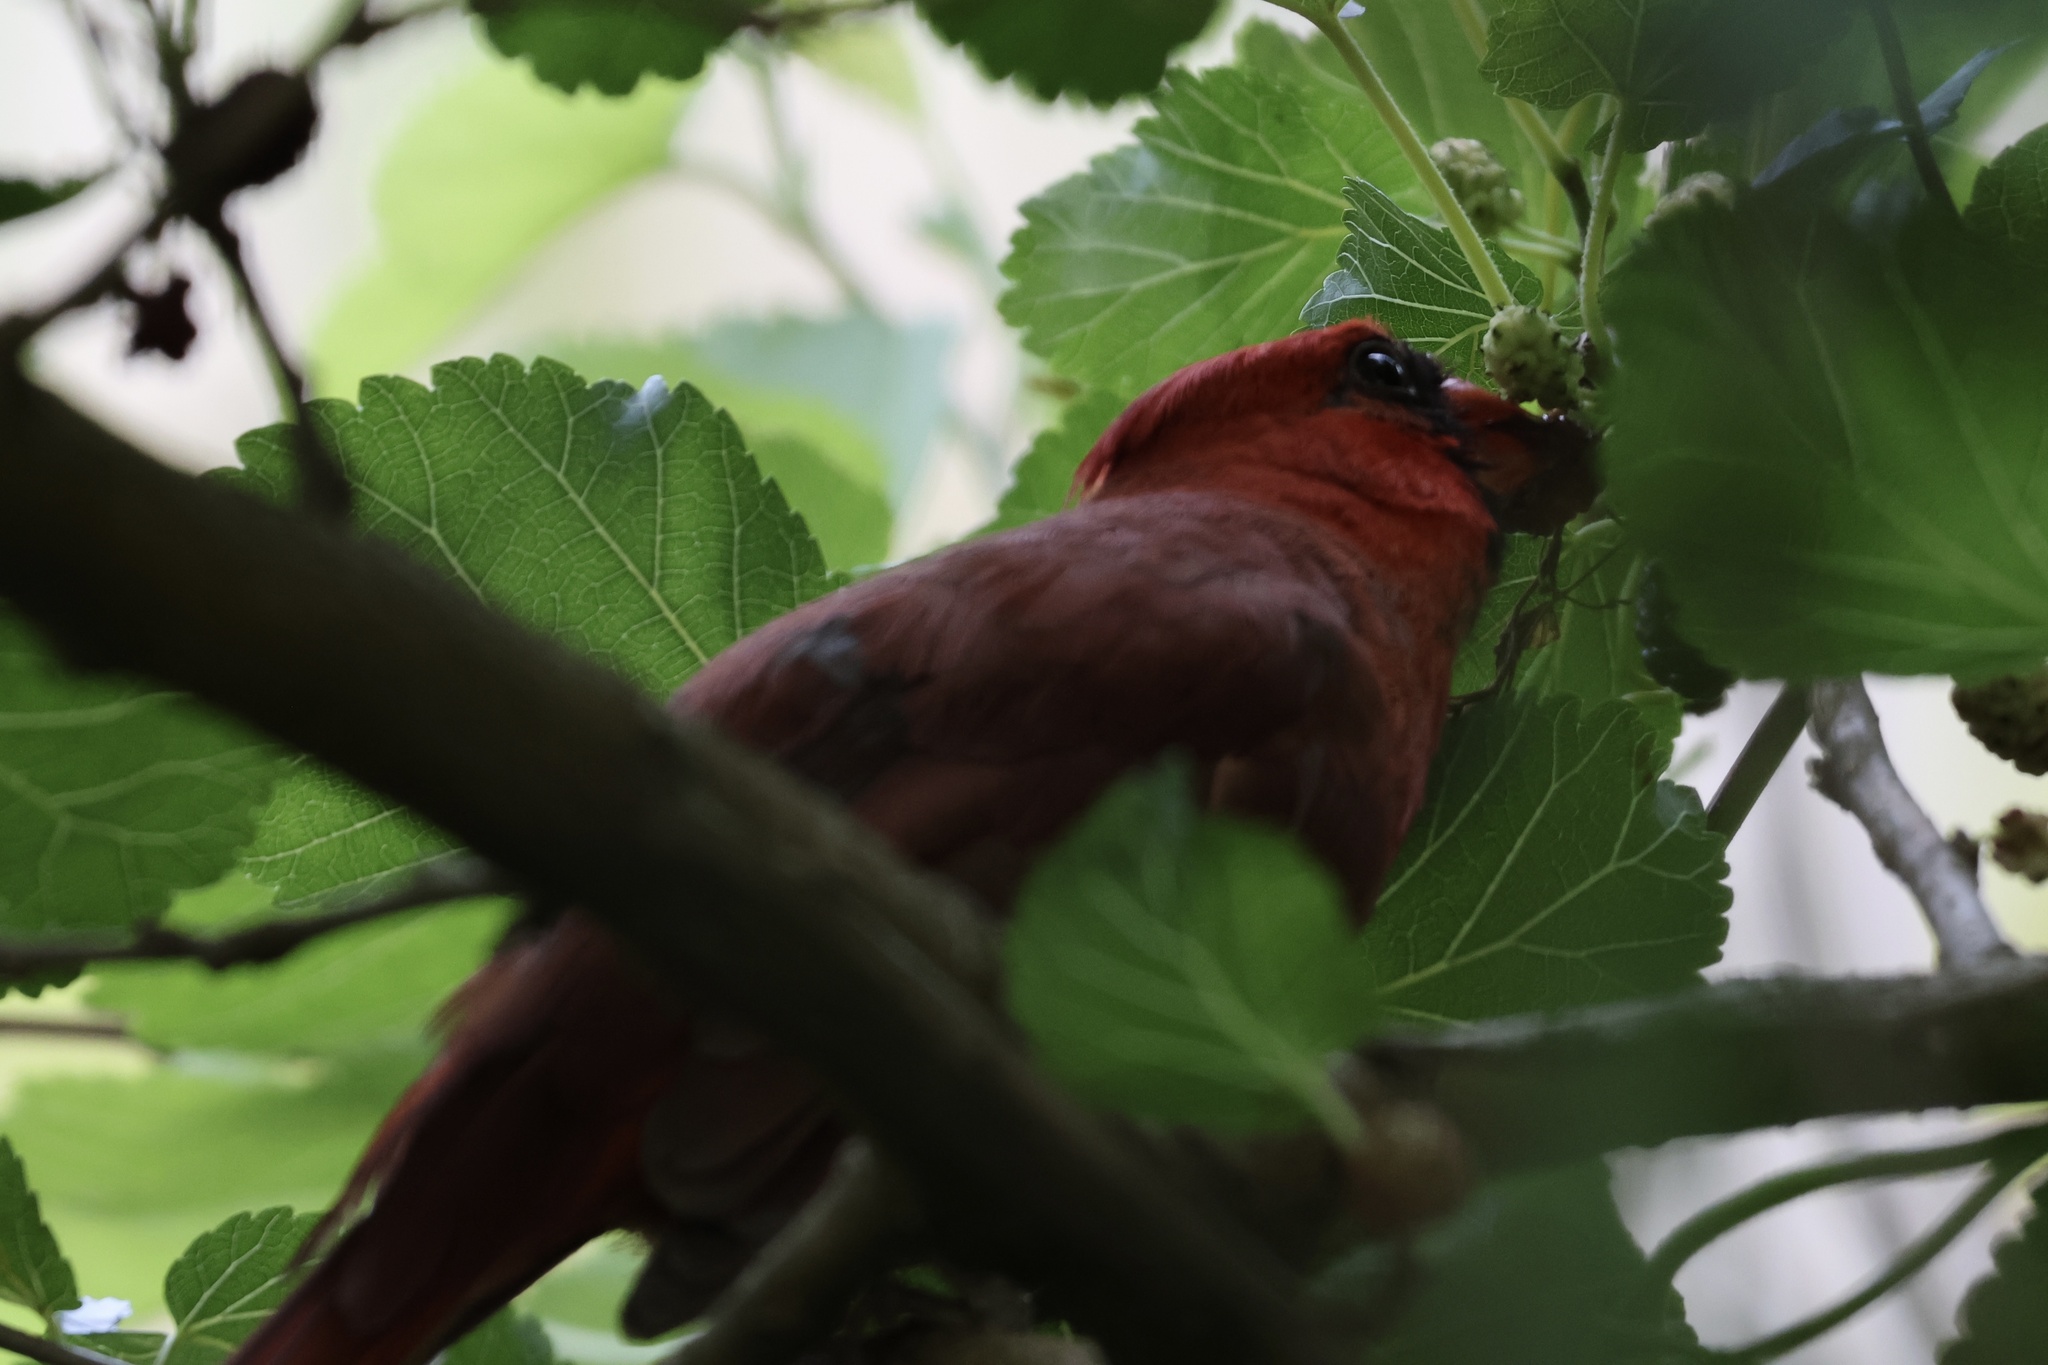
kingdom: Animalia
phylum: Chordata
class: Aves
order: Passeriformes
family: Cardinalidae
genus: Cardinalis
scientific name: Cardinalis cardinalis
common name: Northern cardinal
